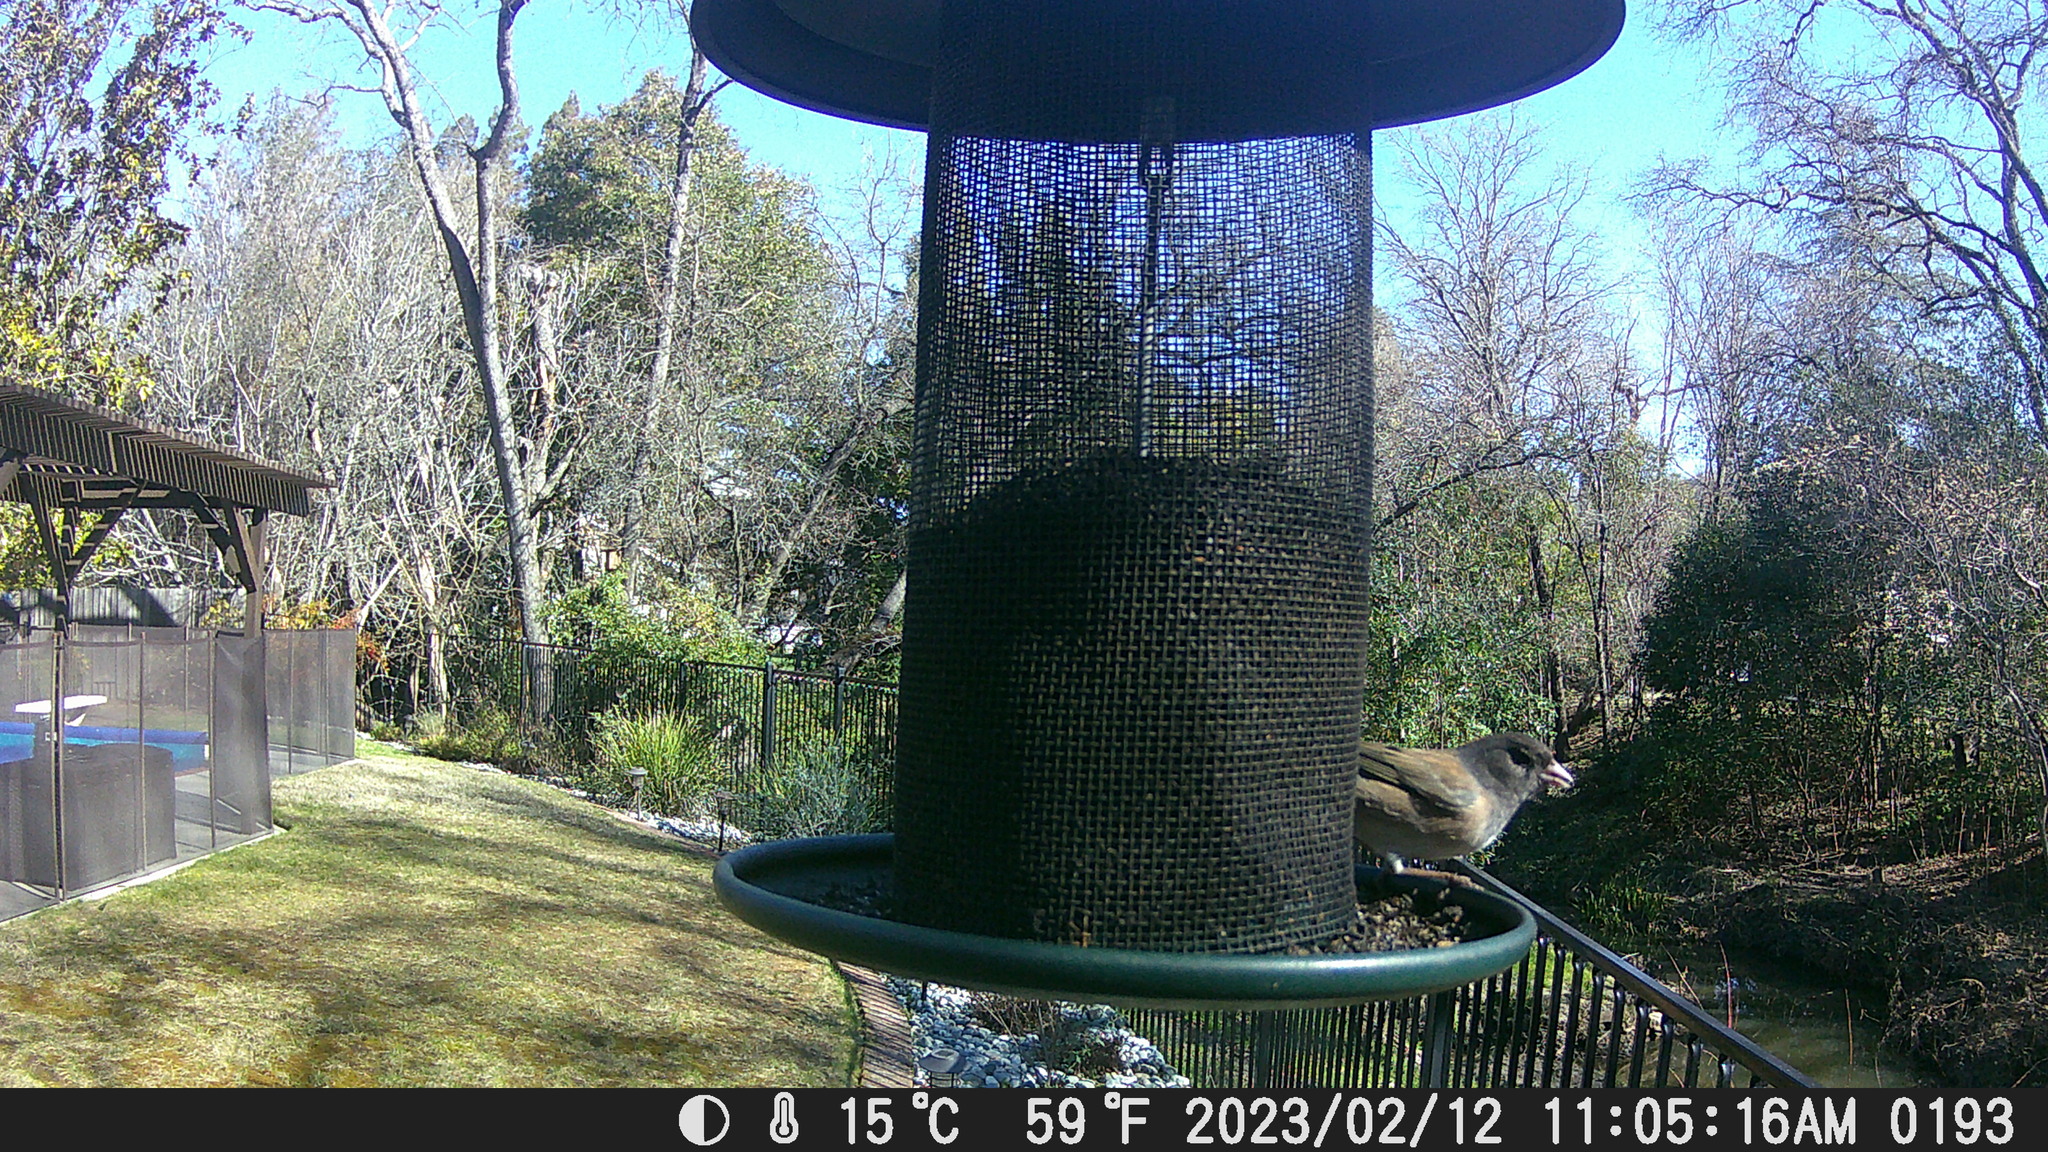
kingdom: Animalia
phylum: Chordata
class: Aves
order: Passeriformes
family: Passerellidae
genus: Junco
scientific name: Junco hyemalis
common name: Dark-eyed junco
